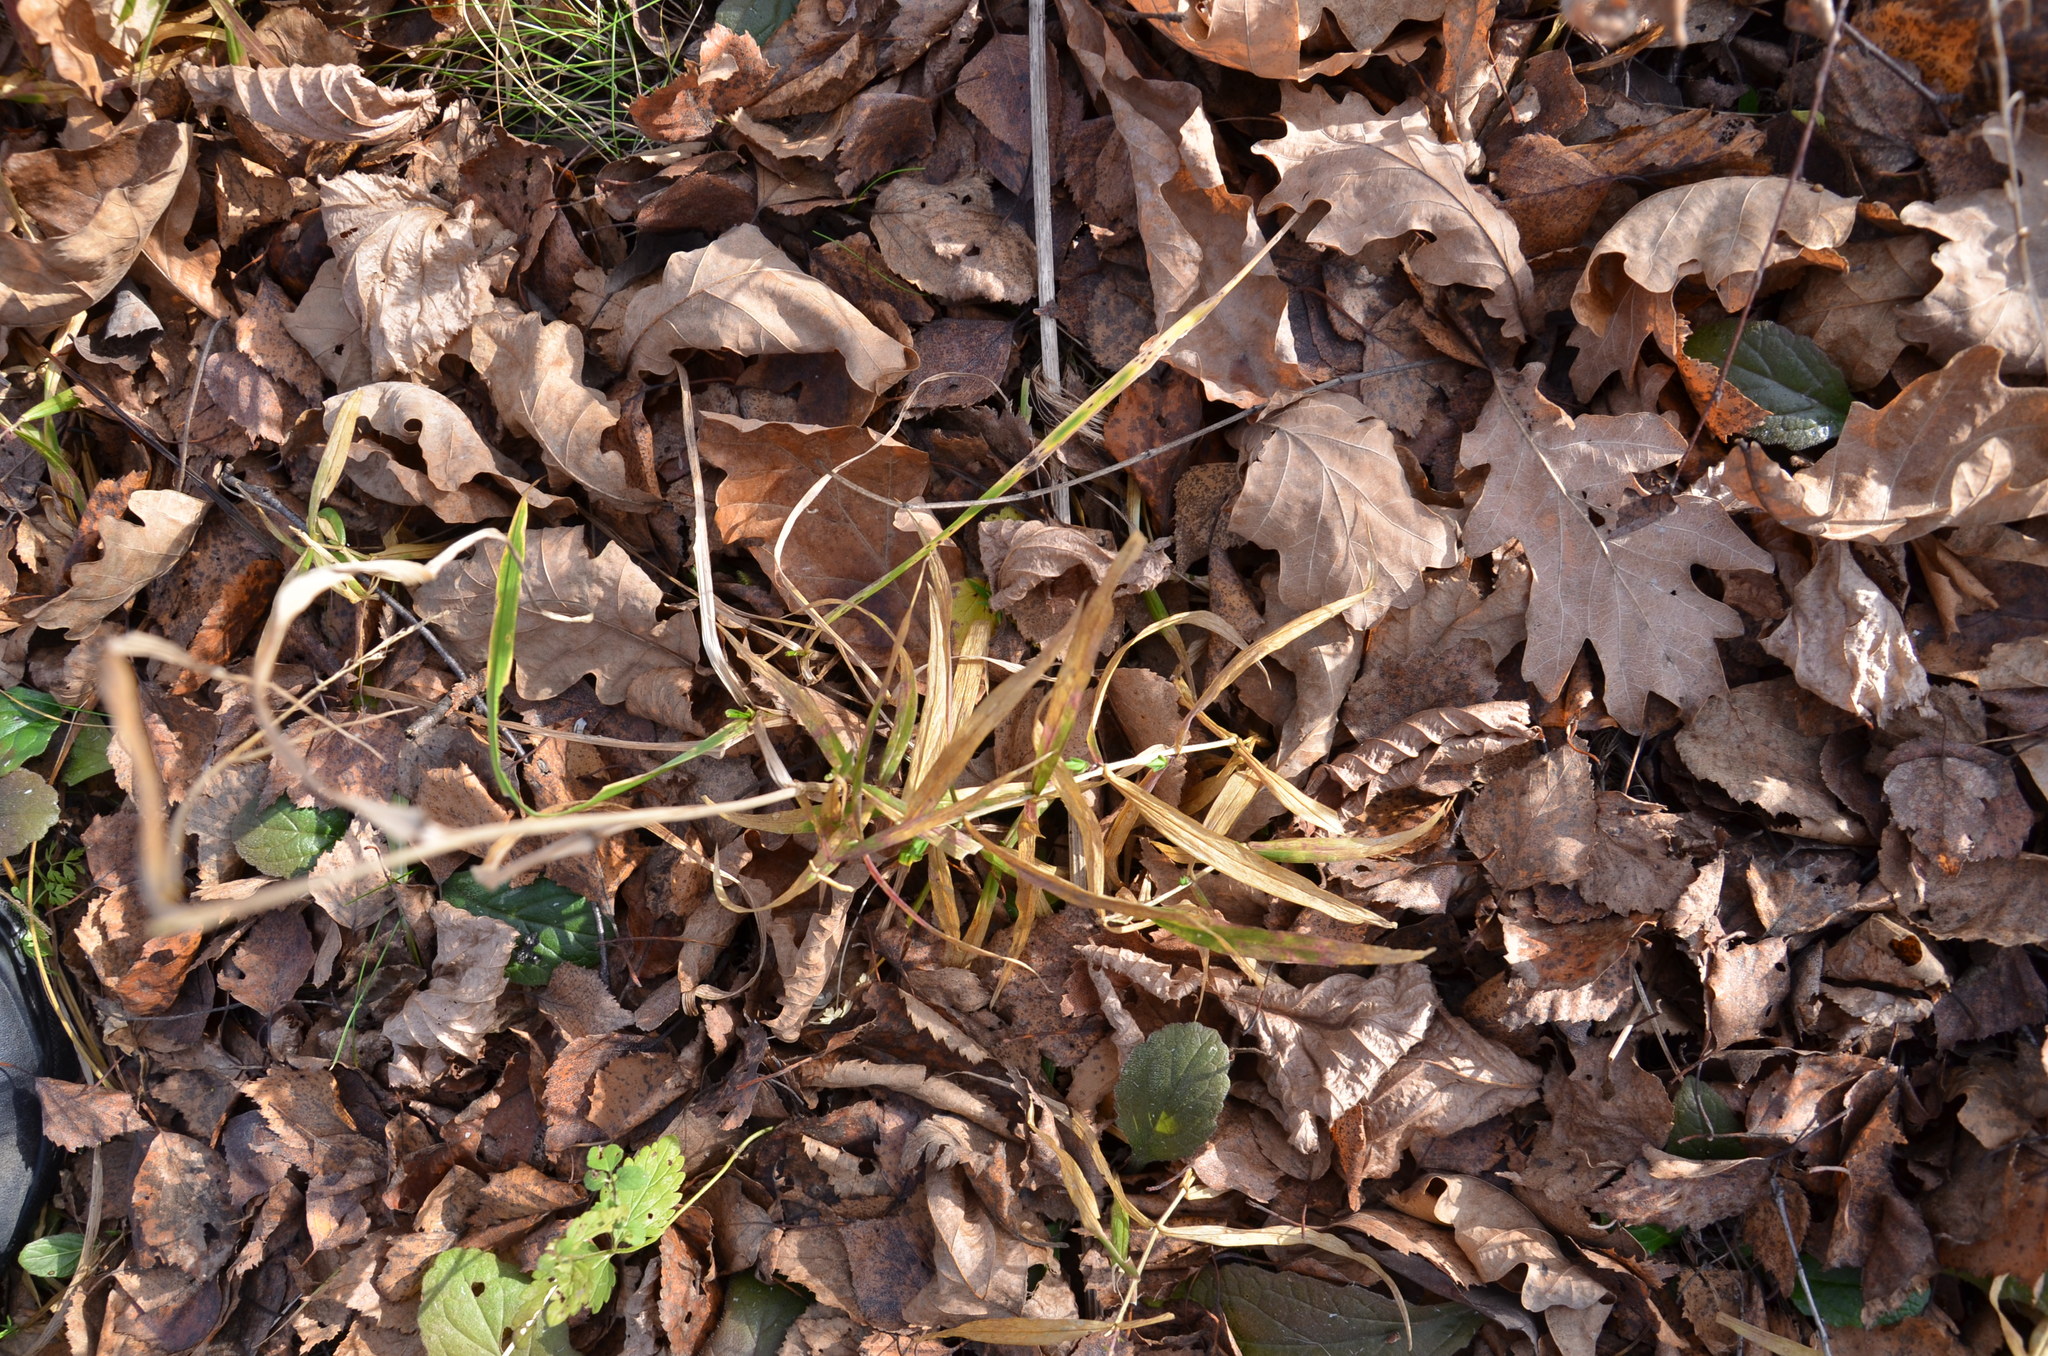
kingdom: Plantae
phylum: Tracheophyta
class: Magnoliopsida
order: Caryophyllales
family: Caryophyllaceae
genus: Rabelera
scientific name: Rabelera holostea
